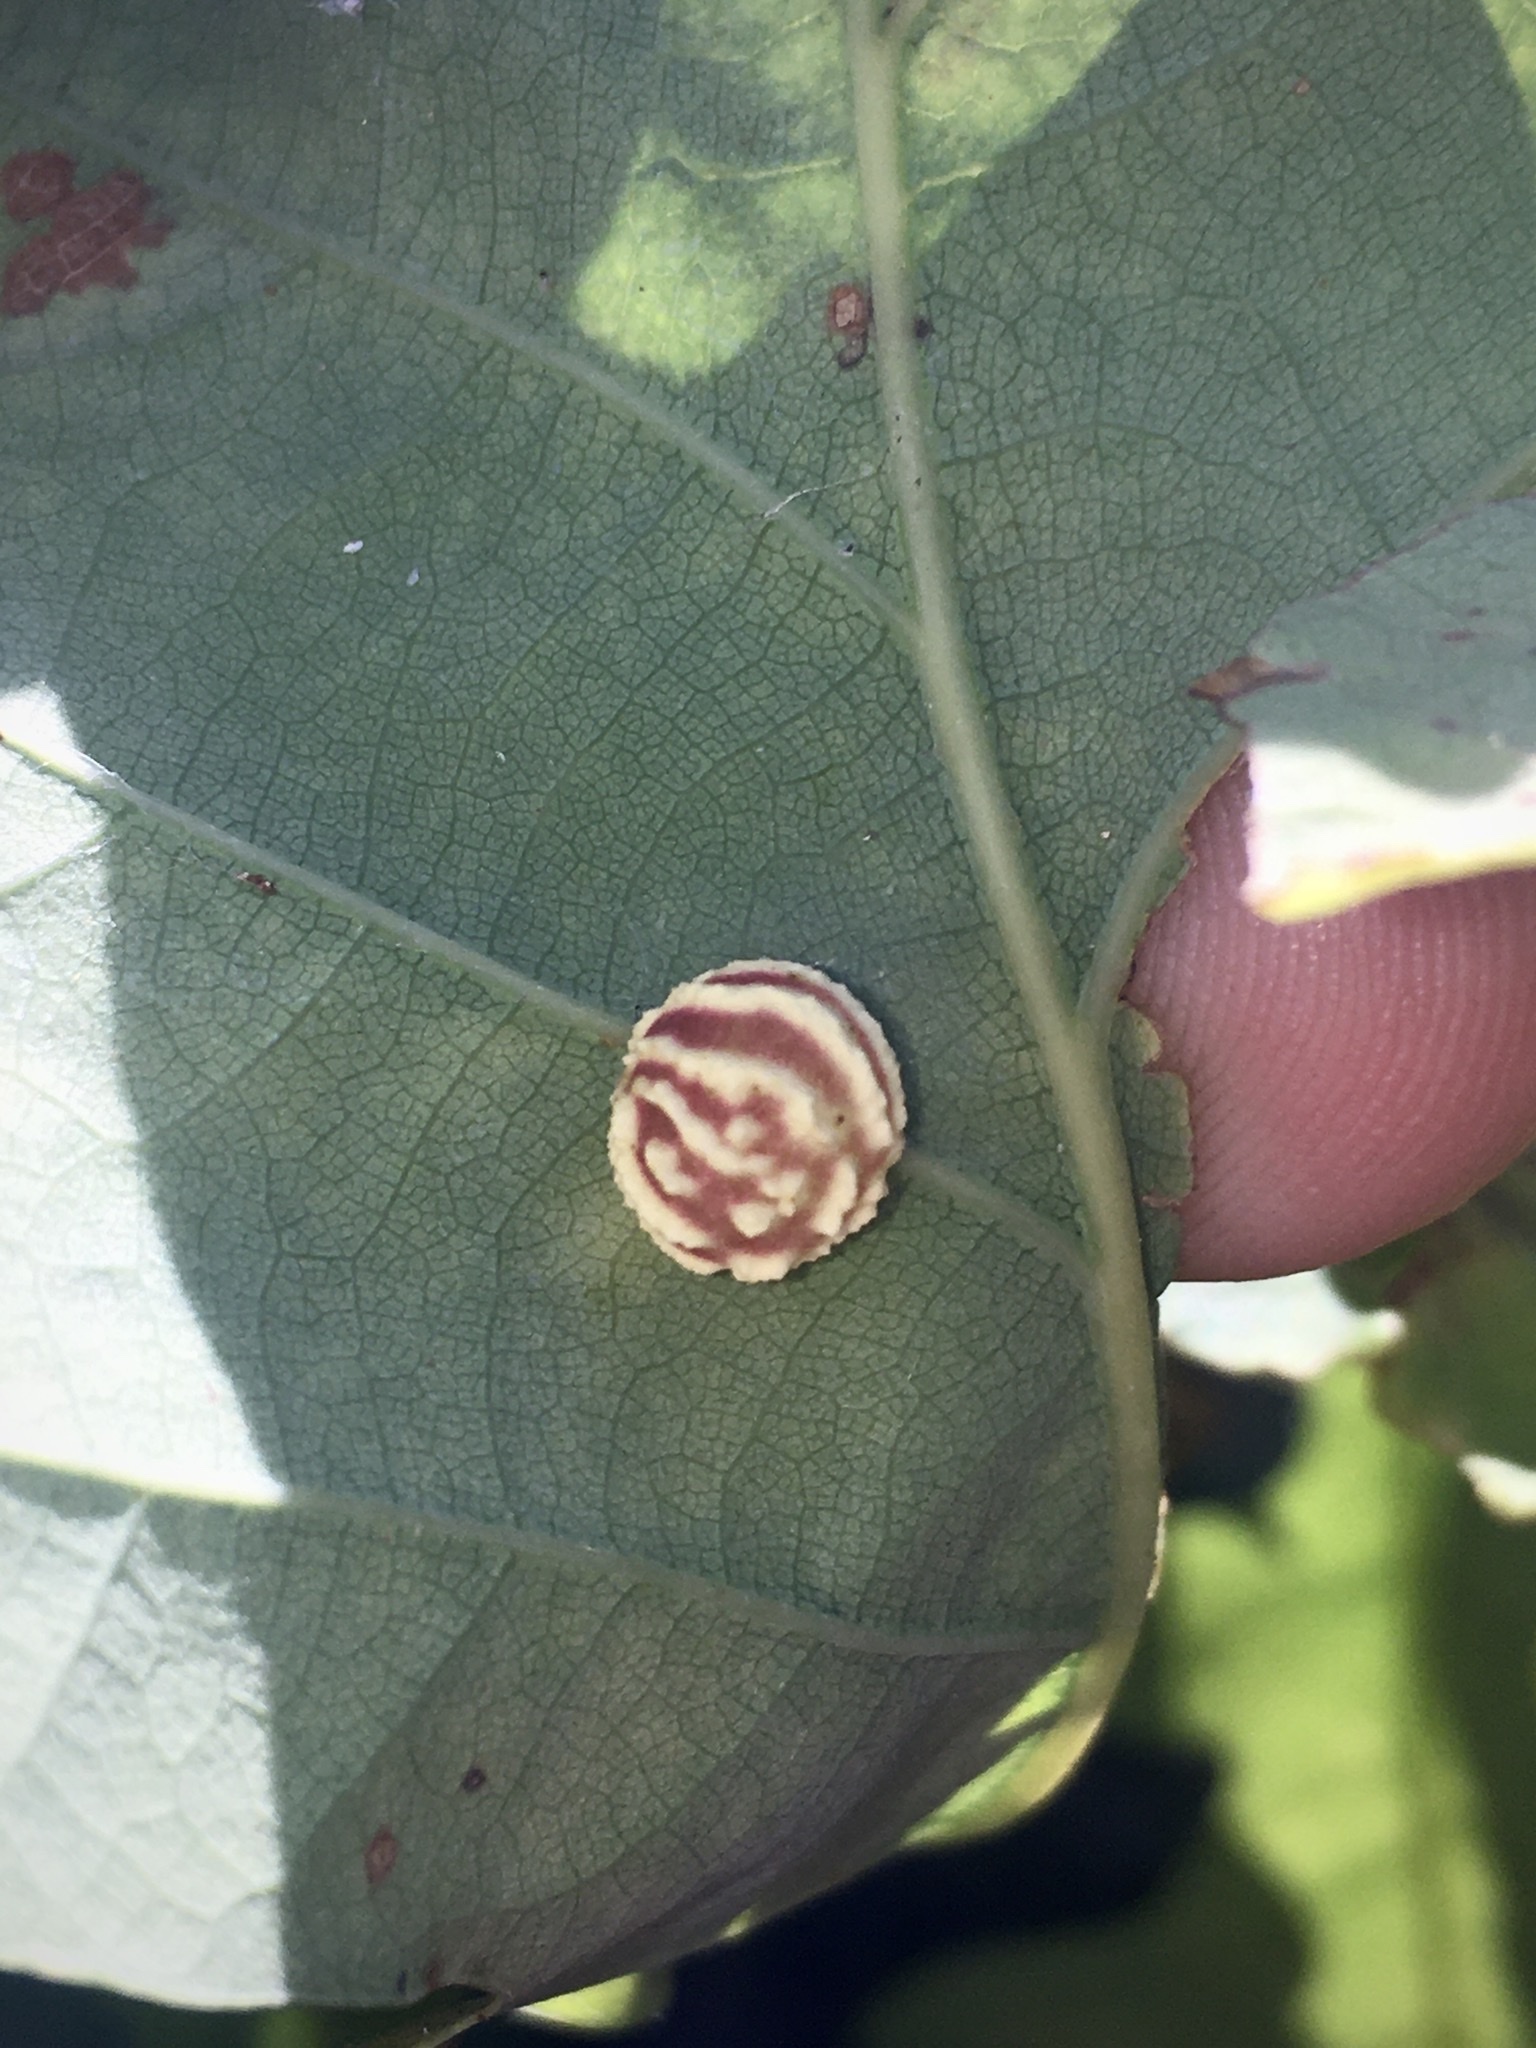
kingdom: Animalia
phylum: Arthropoda
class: Insecta
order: Hymenoptera
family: Cynipidae
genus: Cynips
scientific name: Cynips longiventris
